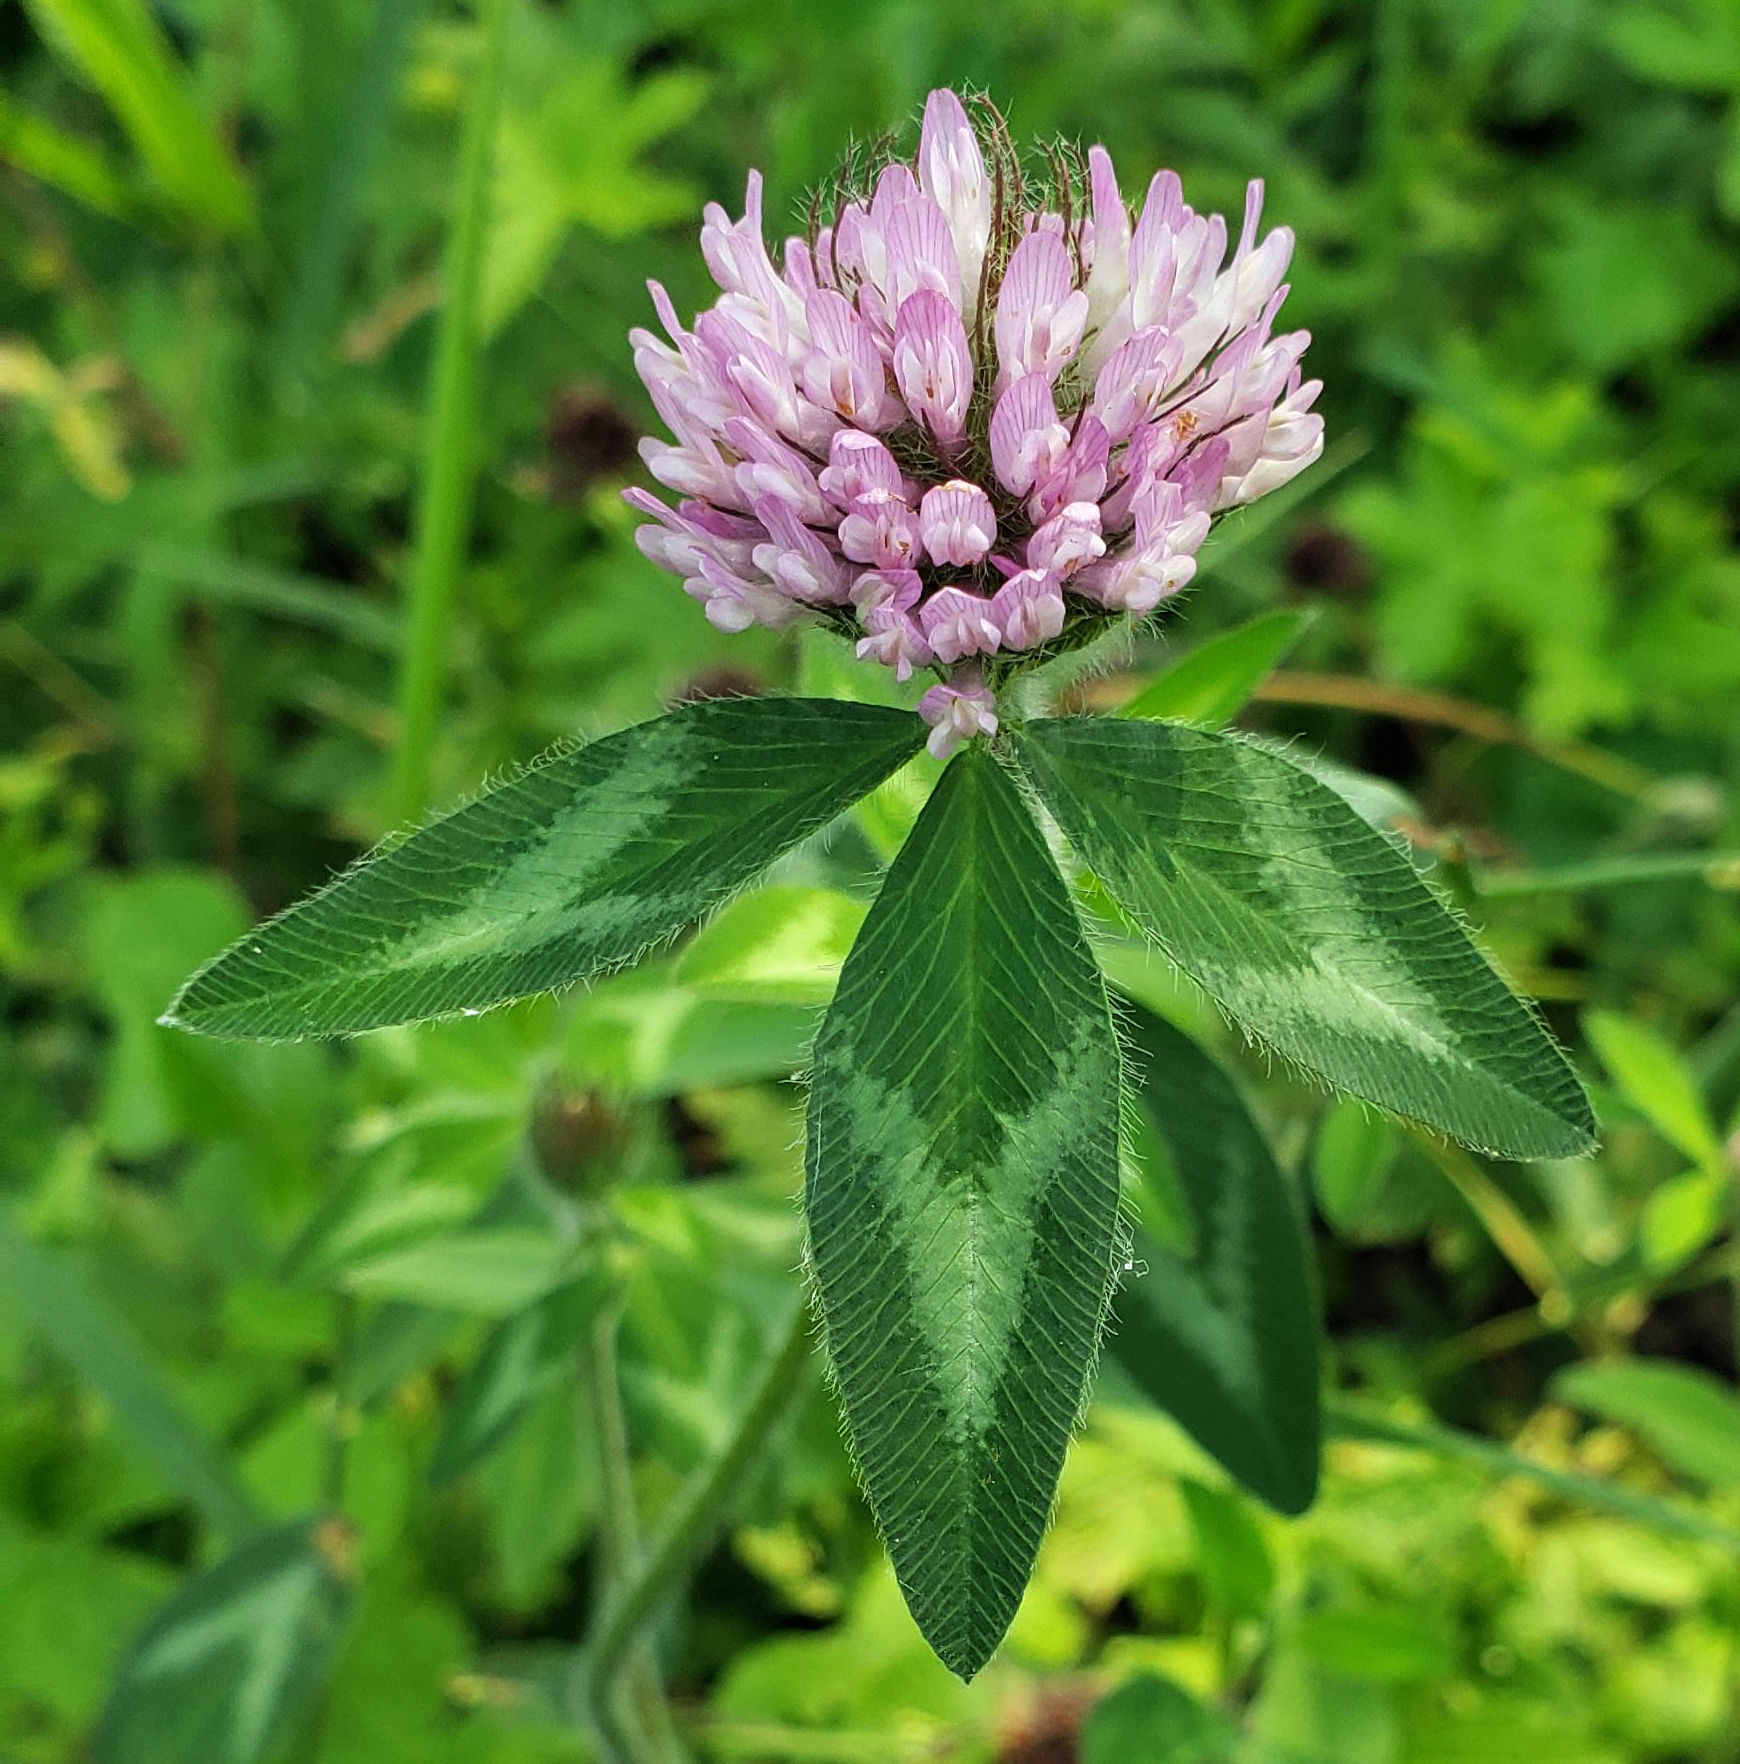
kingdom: Plantae
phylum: Tracheophyta
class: Magnoliopsida
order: Fabales
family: Fabaceae
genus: Trifolium
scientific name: Trifolium pratense
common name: Red clover
